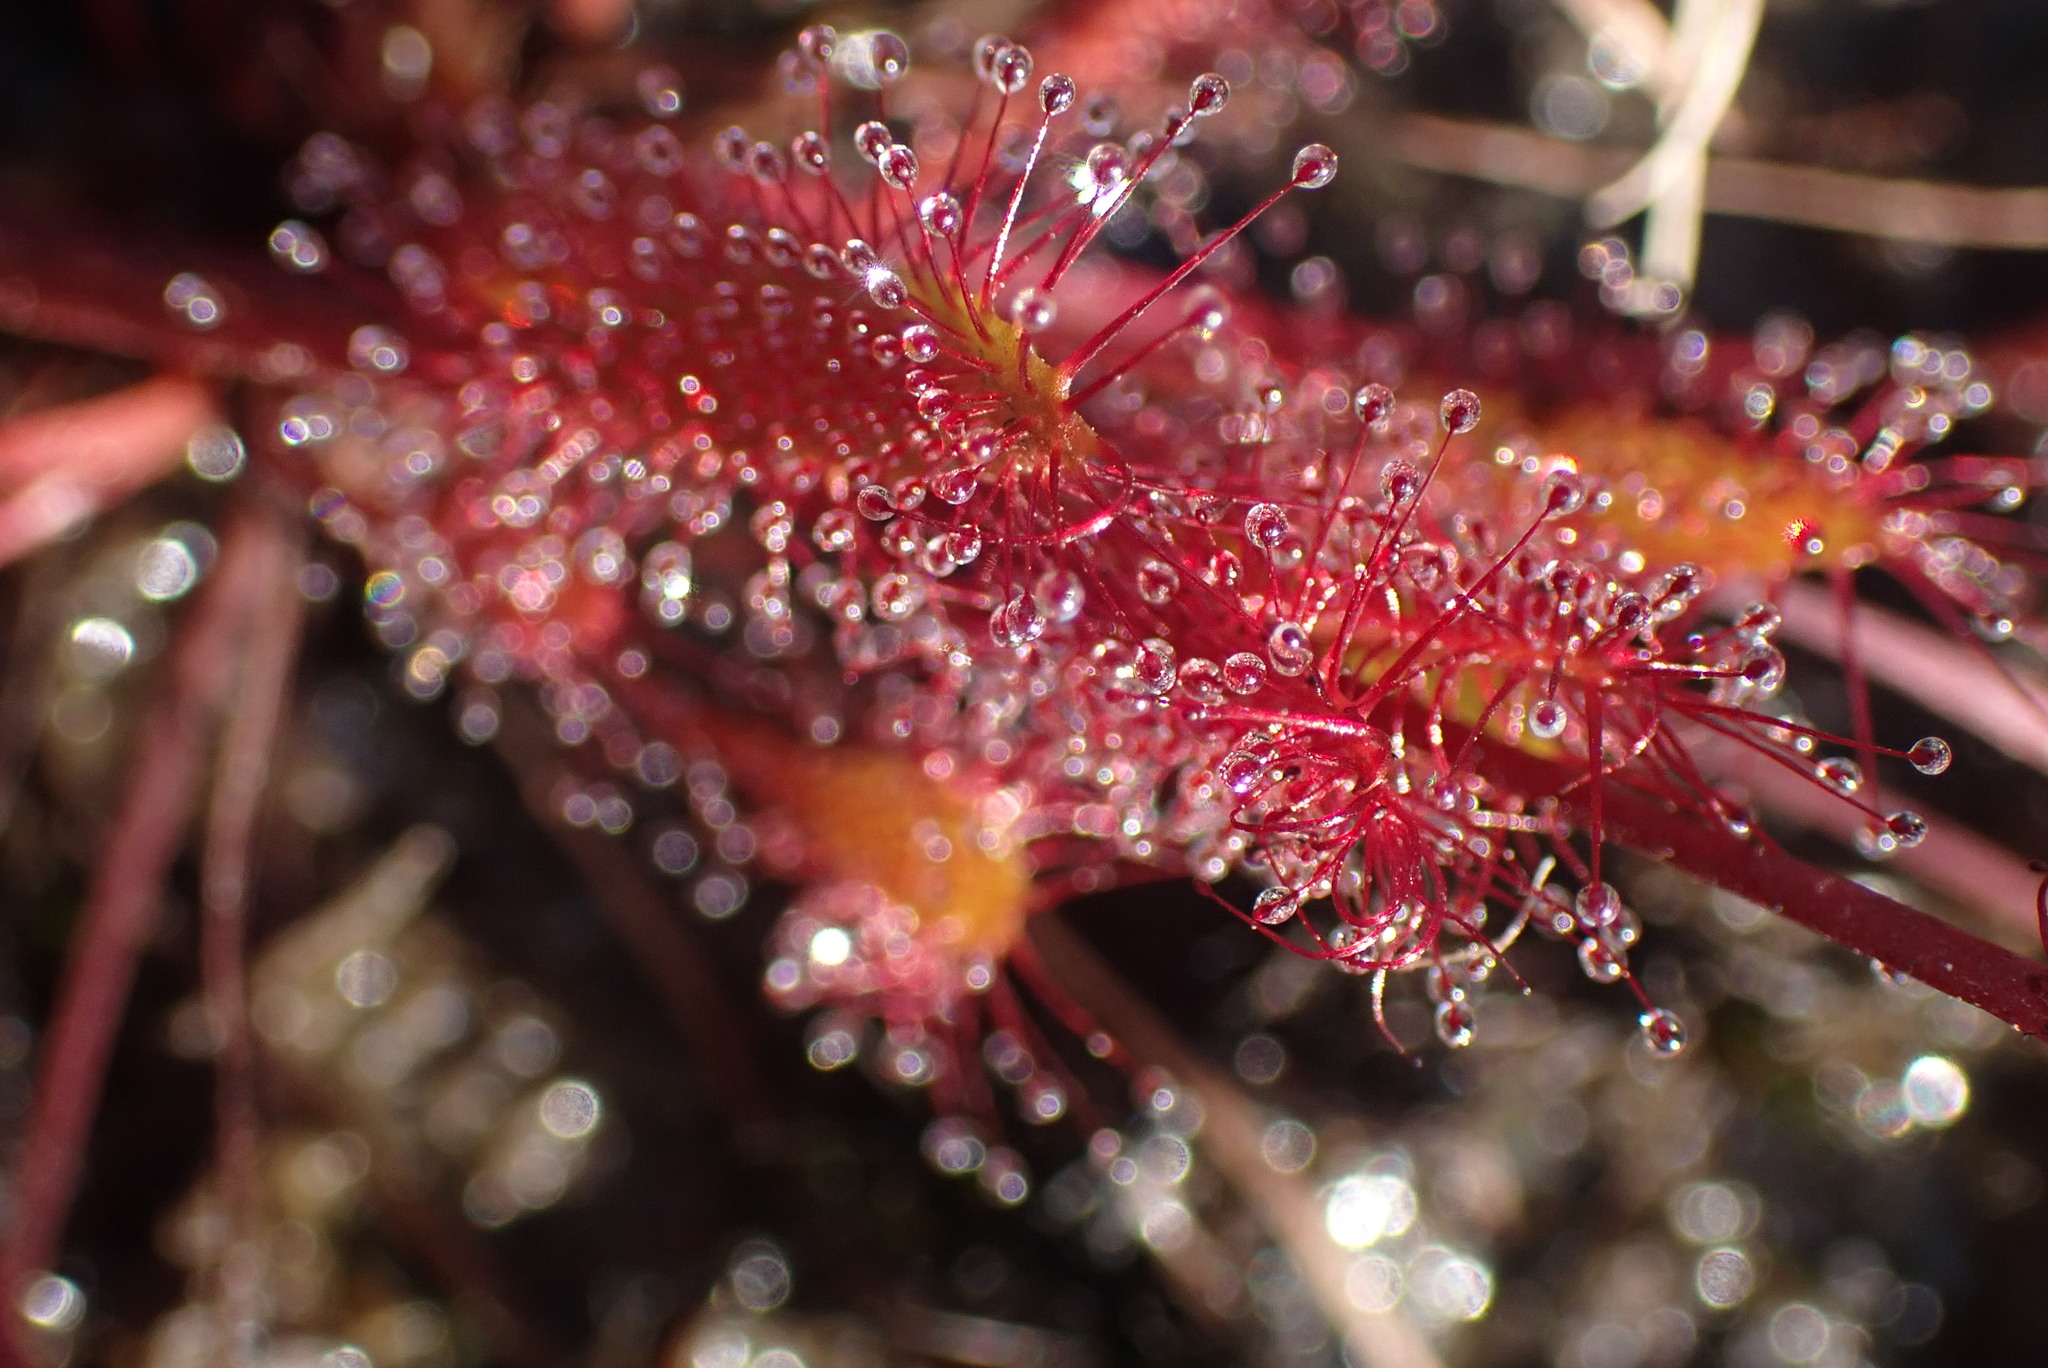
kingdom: Plantae
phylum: Tracheophyta
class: Magnoliopsida
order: Caryophyllales
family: Droseraceae
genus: Drosera
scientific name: Drosera anglica
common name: Great sundew
